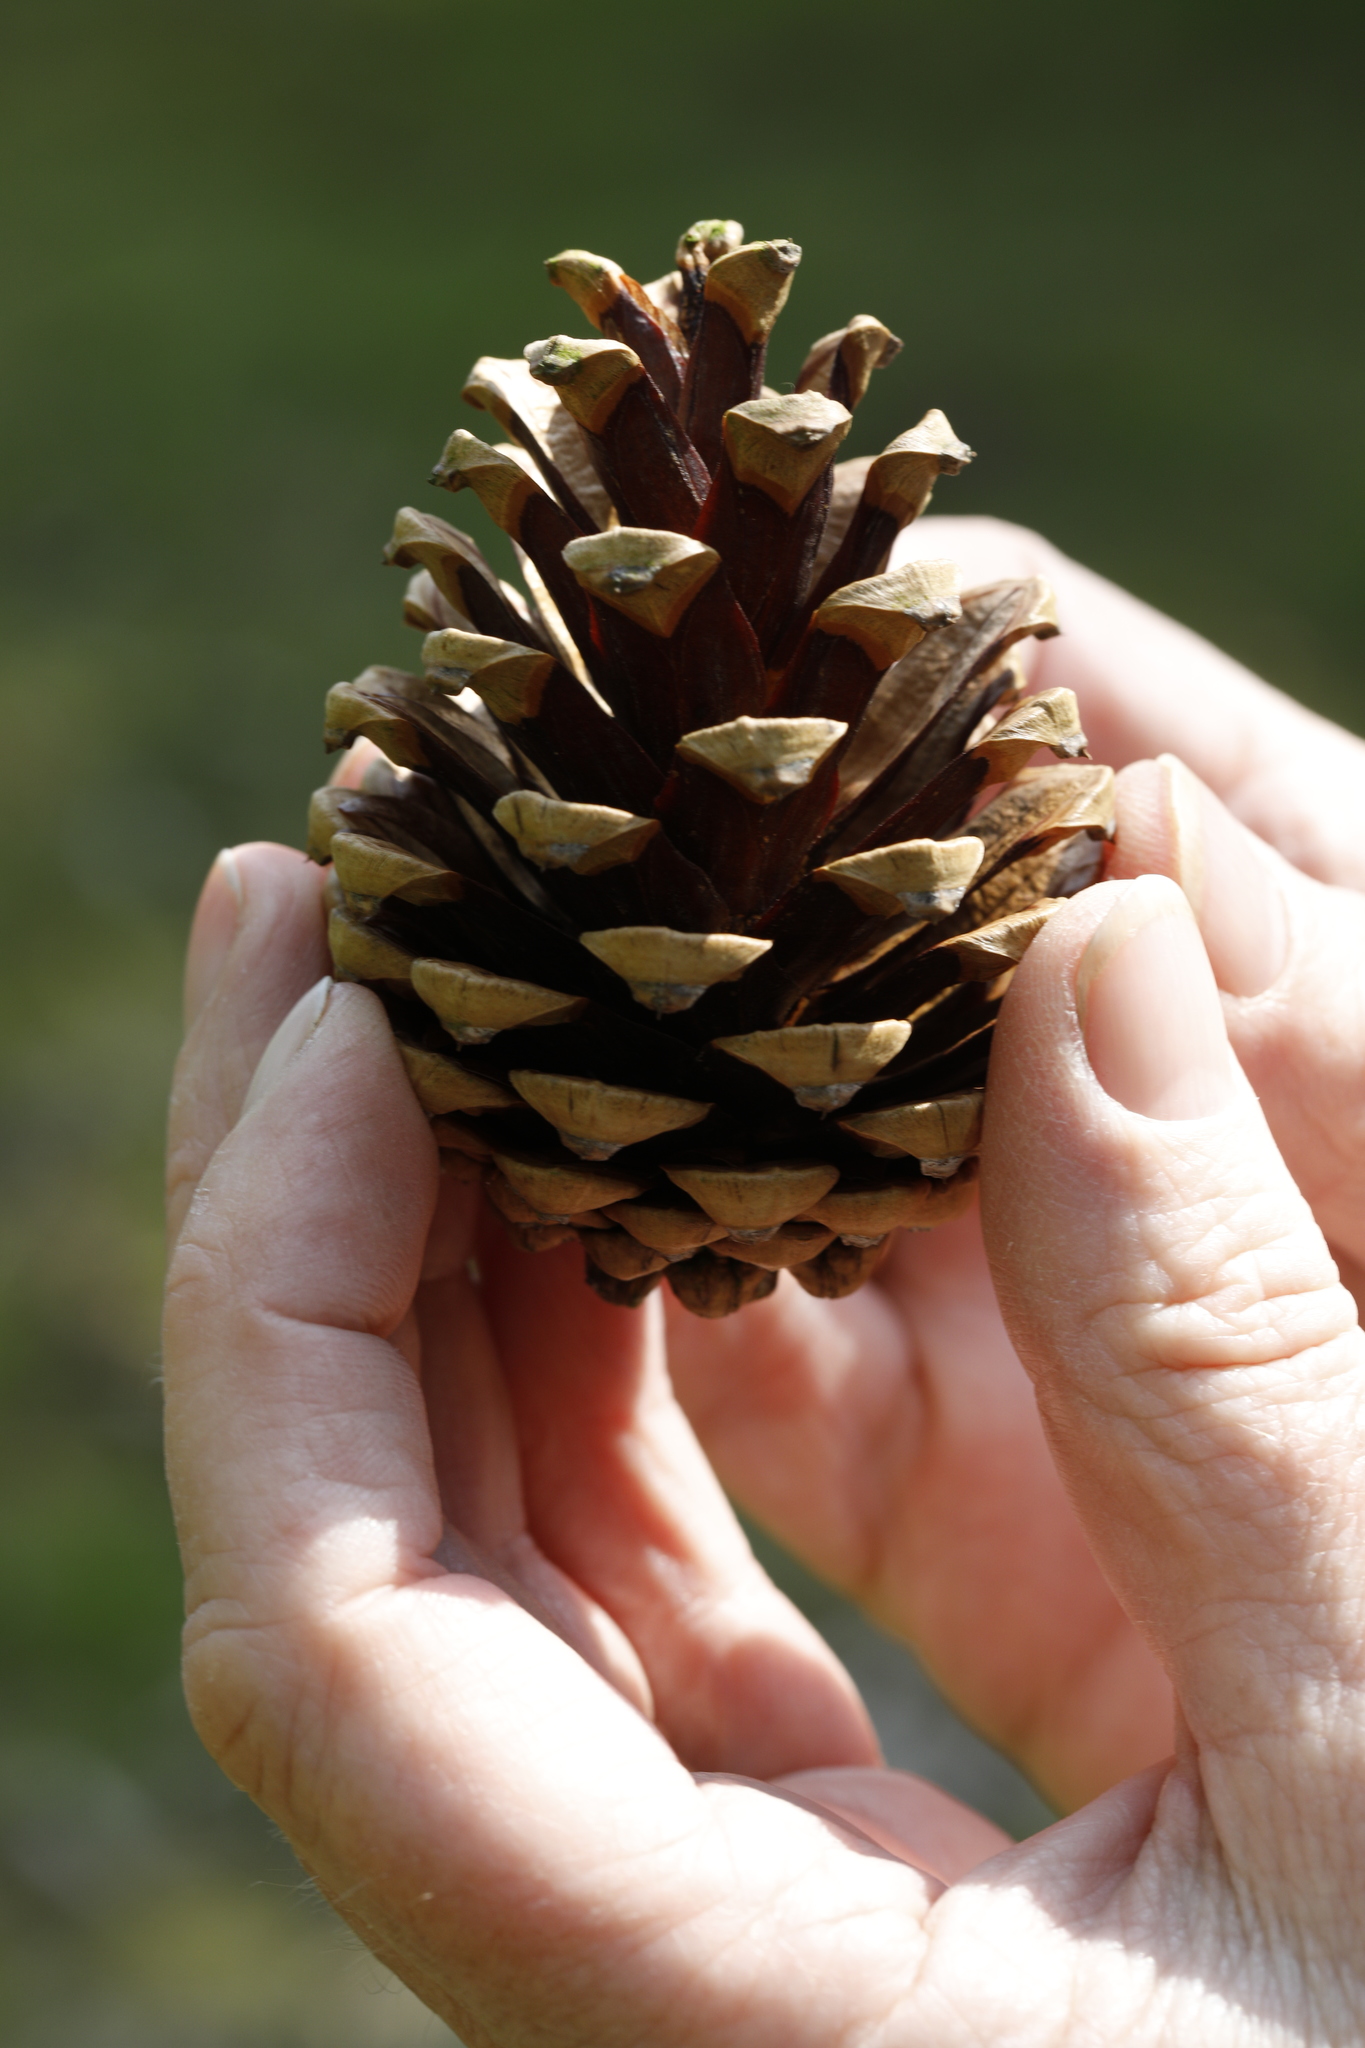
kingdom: Plantae
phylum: Tracheophyta
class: Pinopsida
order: Pinales
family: Pinaceae
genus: Pinus
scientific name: Pinus sylvestris
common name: Scots pine
